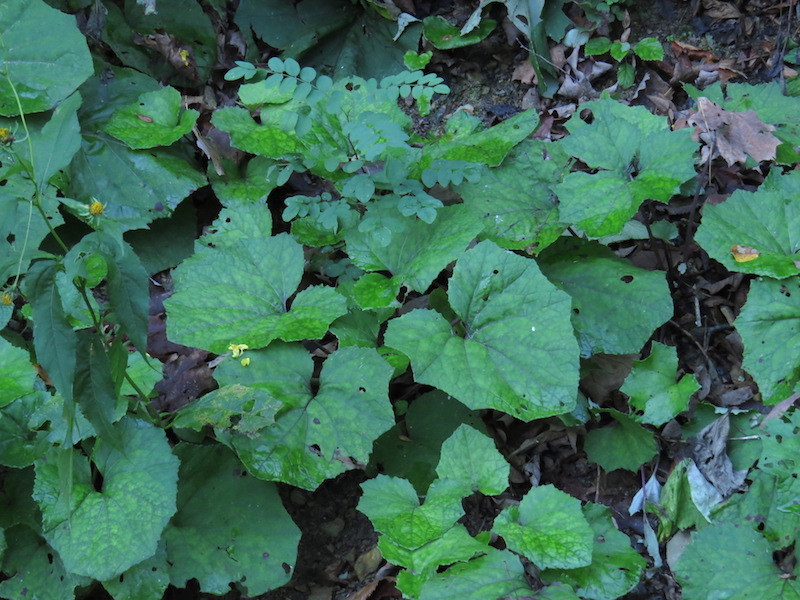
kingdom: Plantae
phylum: Tracheophyta
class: Magnoliopsida
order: Asterales
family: Asteraceae
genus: Tussilago
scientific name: Tussilago farfara
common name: Coltsfoot
